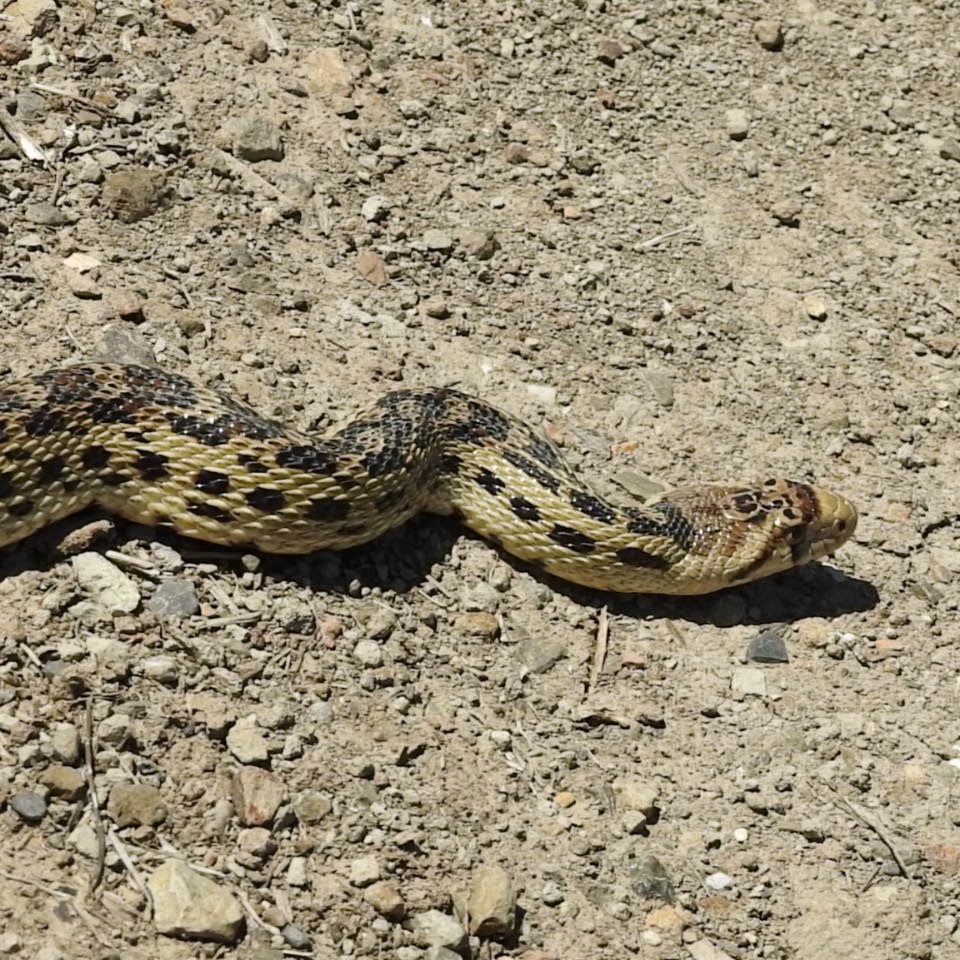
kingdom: Animalia
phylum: Chordata
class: Squamata
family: Colubridae
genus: Pituophis
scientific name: Pituophis catenifer
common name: Gopher snake
